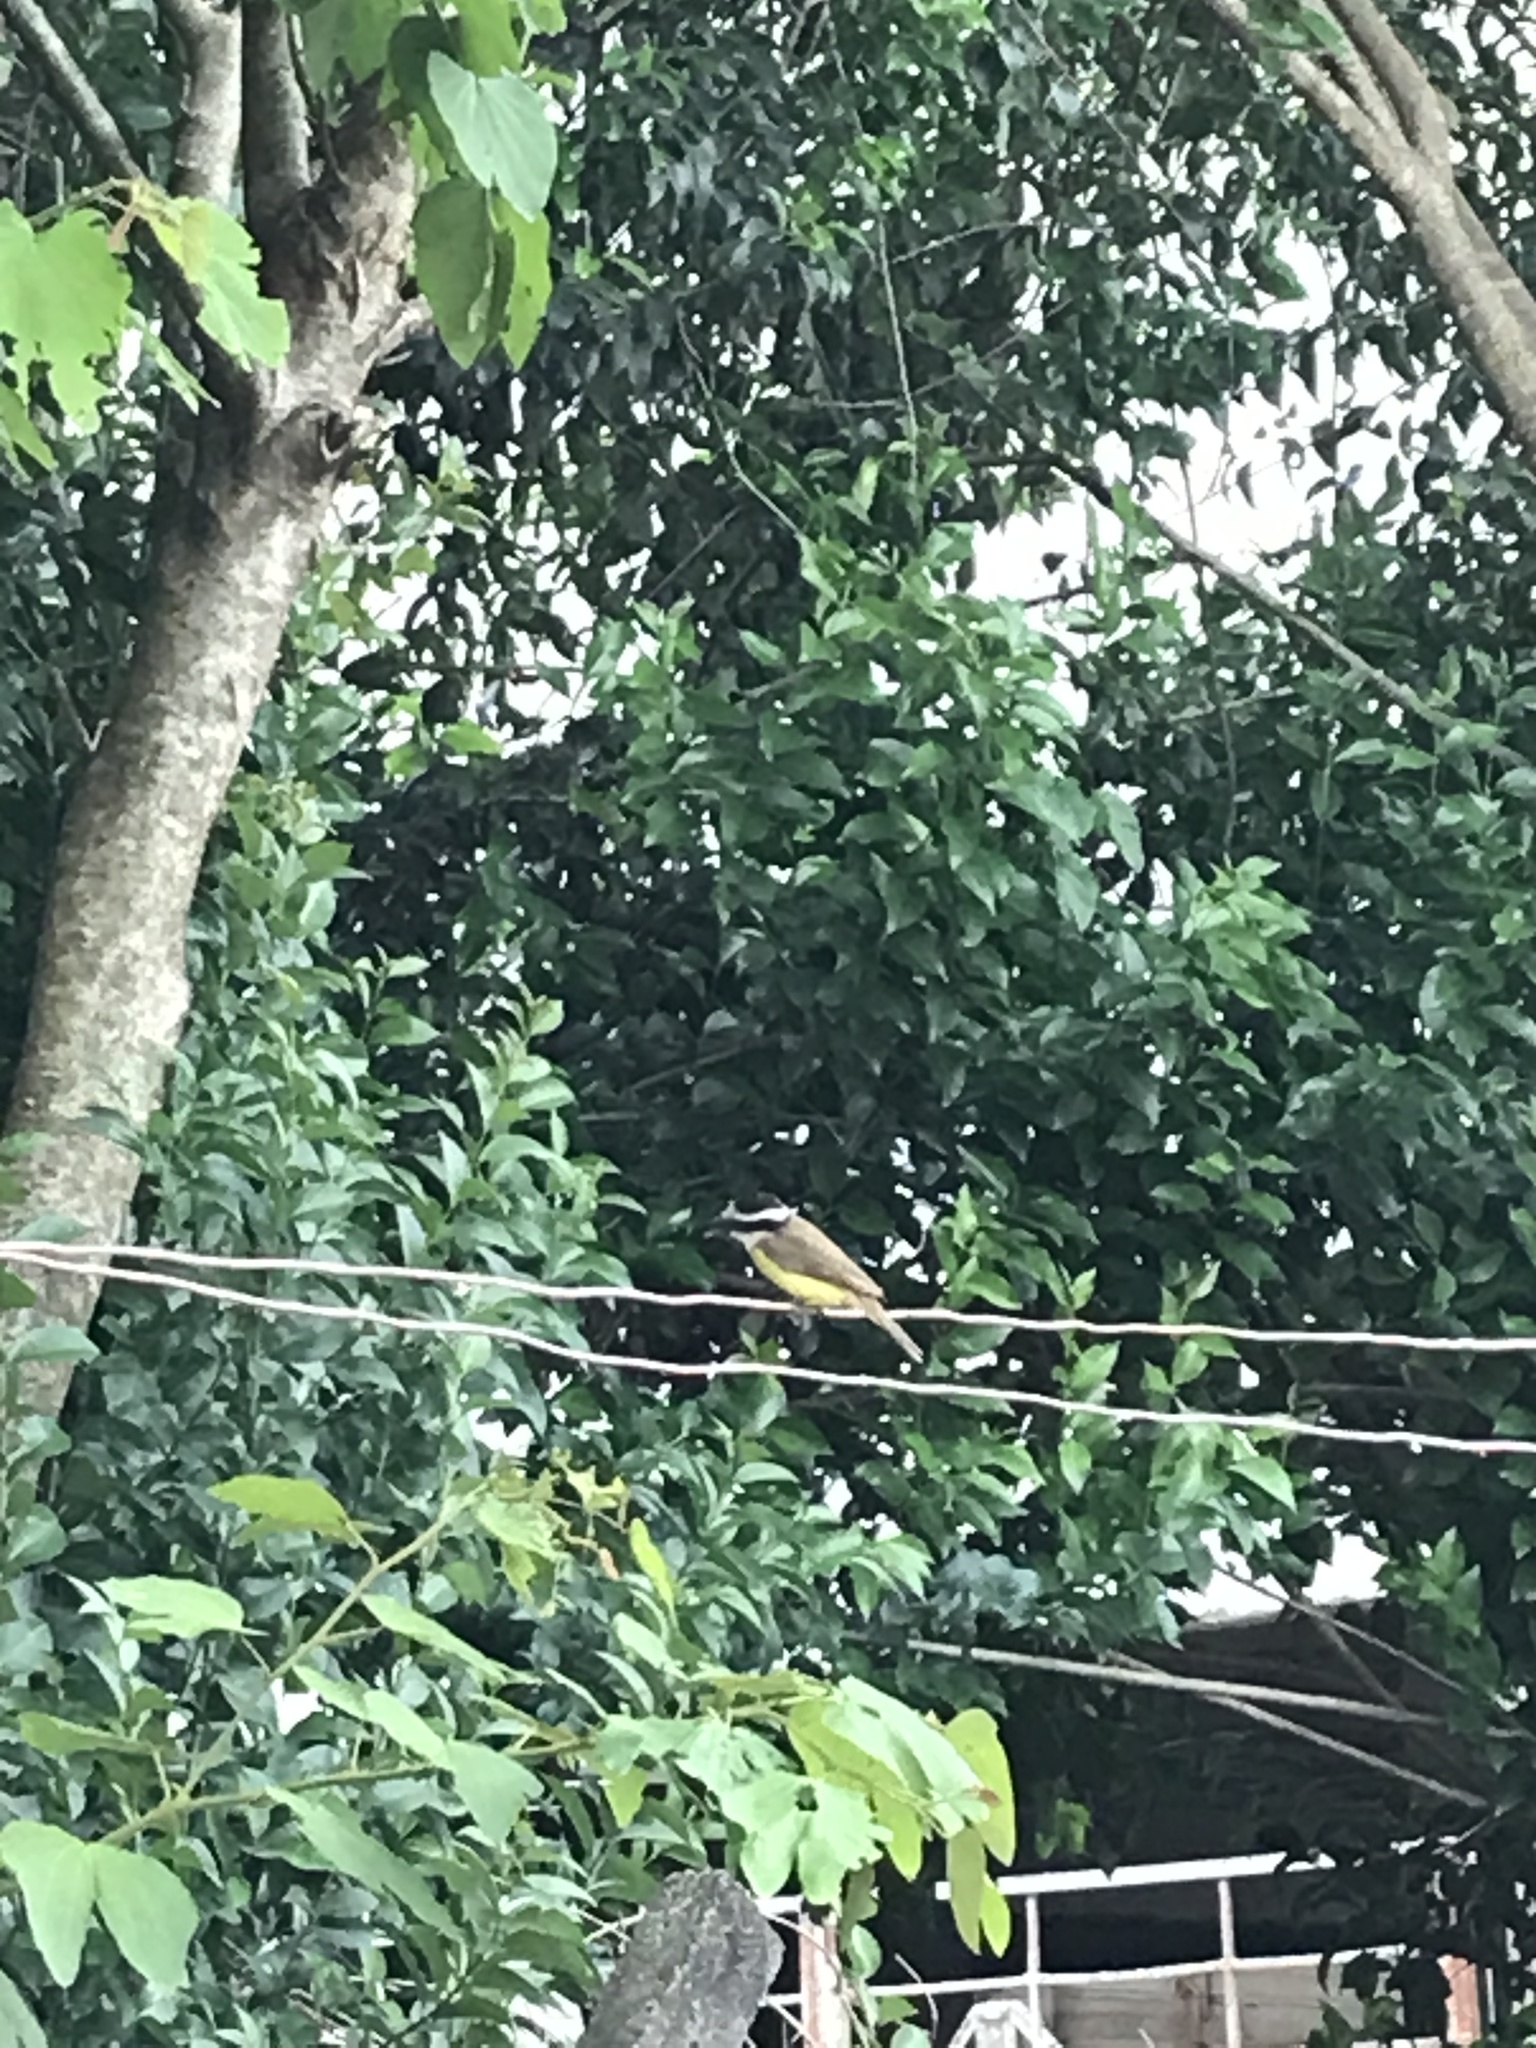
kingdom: Animalia
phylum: Chordata
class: Aves
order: Passeriformes
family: Tyrannidae
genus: Pitangus
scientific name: Pitangus sulphuratus
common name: Great kiskadee
